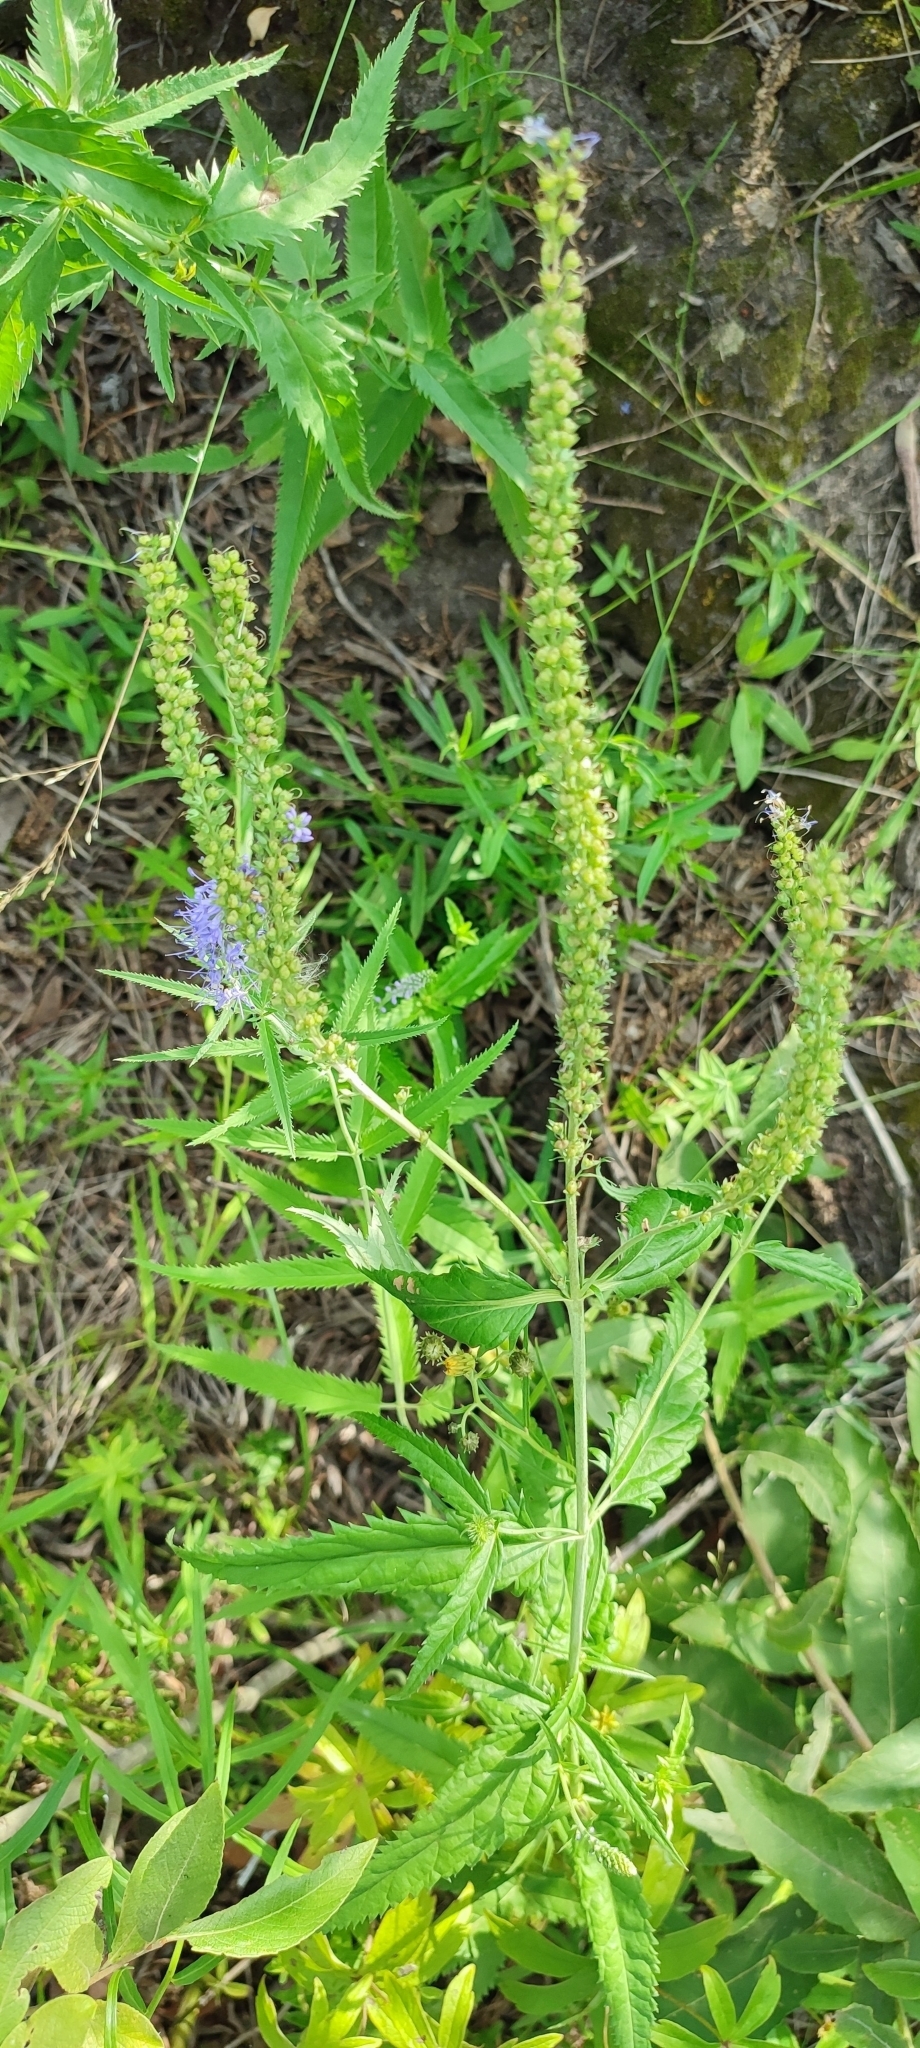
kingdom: Plantae
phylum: Tracheophyta
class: Magnoliopsida
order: Lamiales
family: Plantaginaceae
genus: Veronica
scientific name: Veronica longifolia
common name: Garden speedwell
